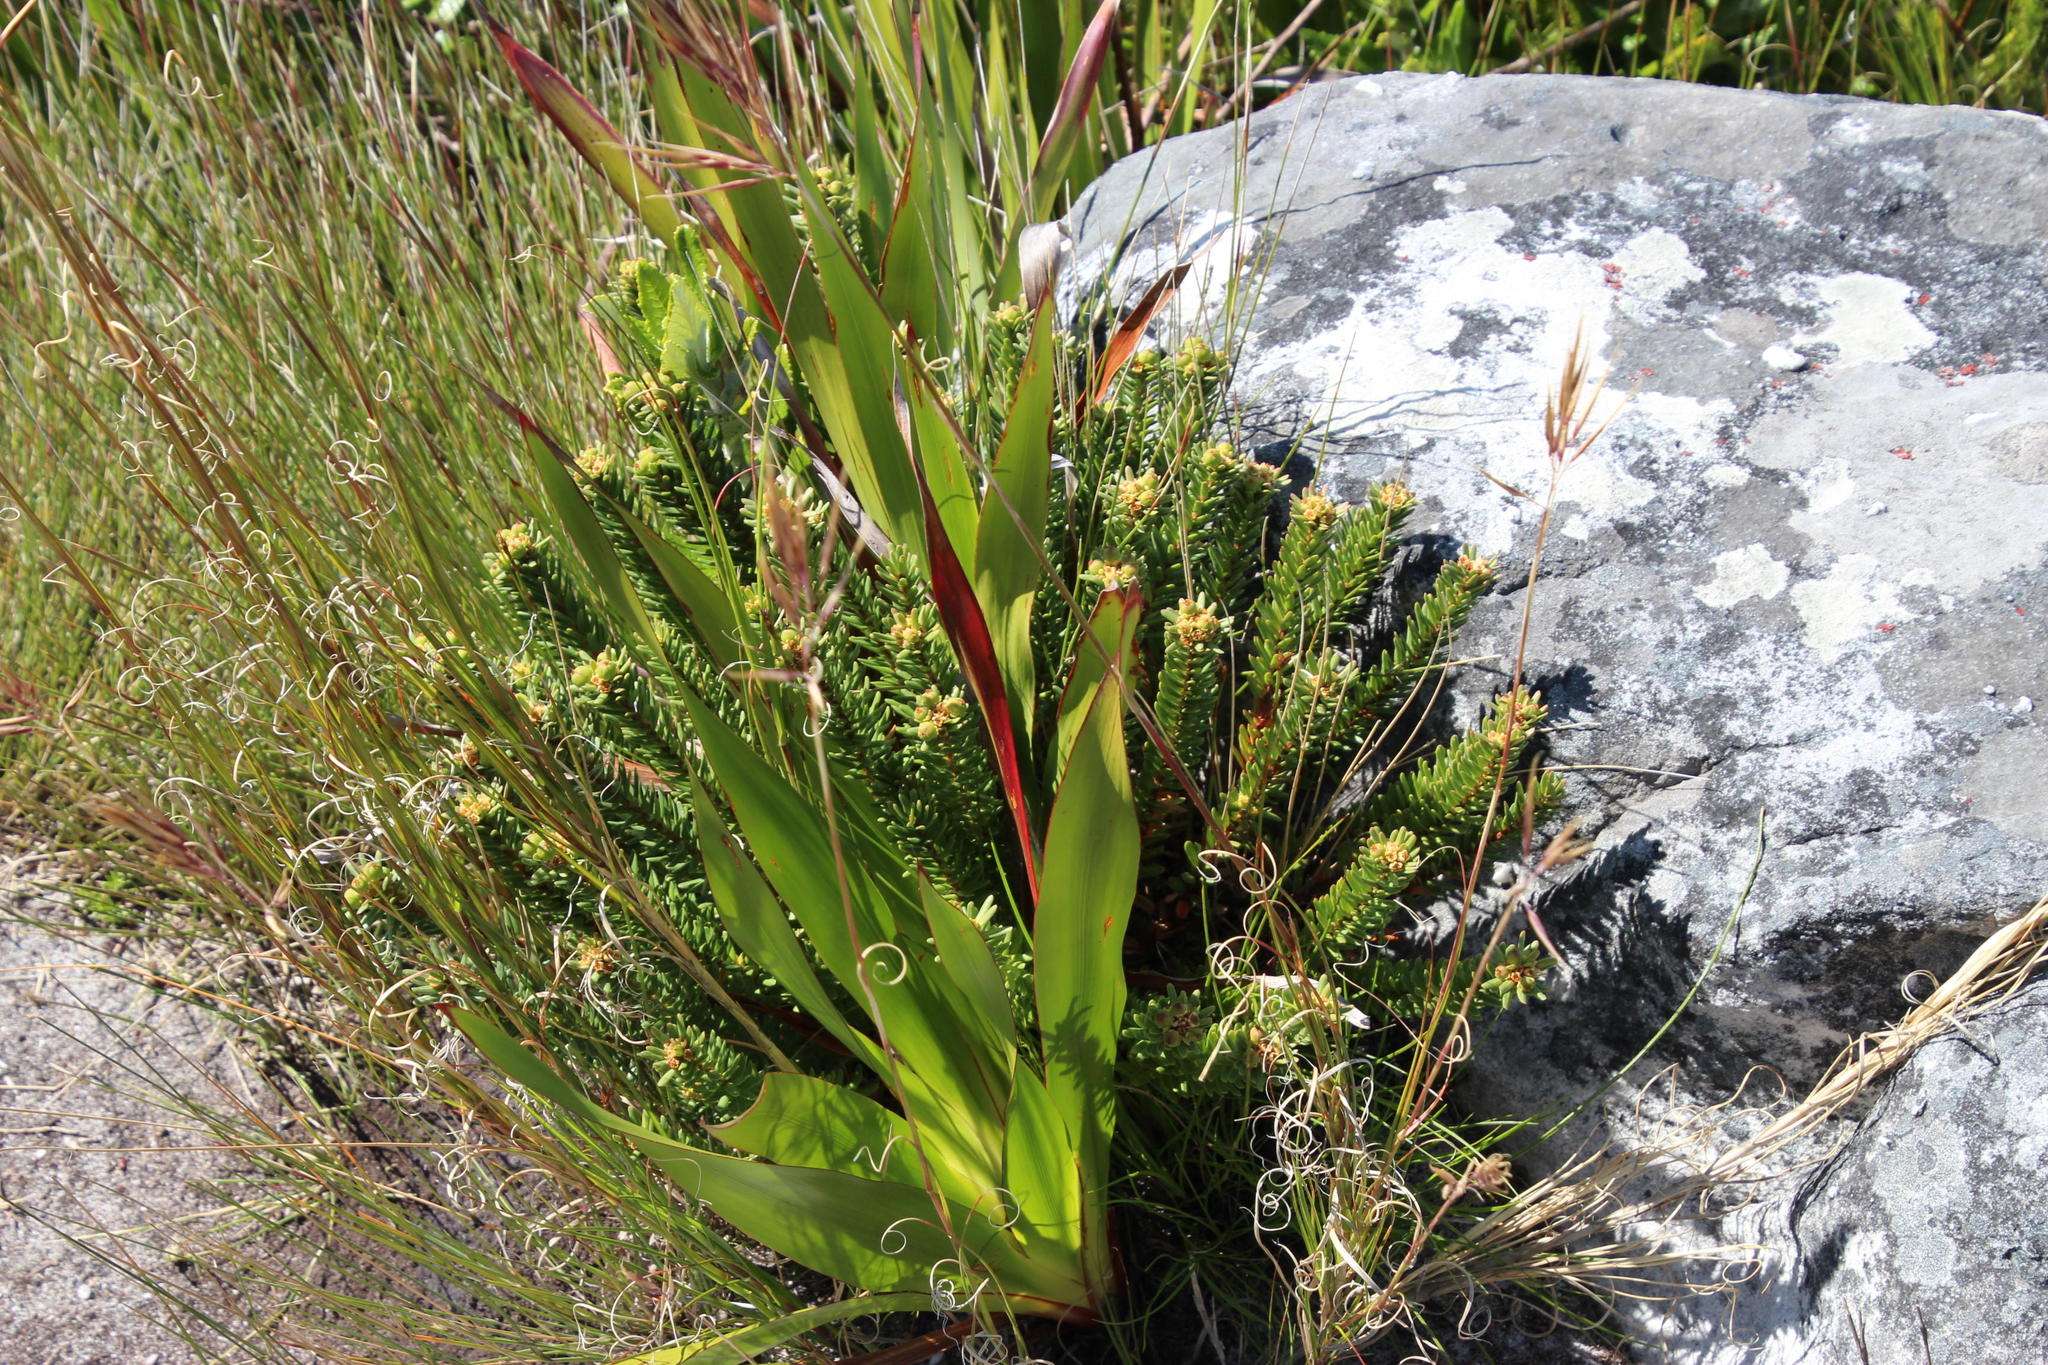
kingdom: Plantae
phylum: Tracheophyta
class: Magnoliopsida
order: Malpighiales
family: Peraceae
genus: Clutia
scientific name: Clutia polygonoides
